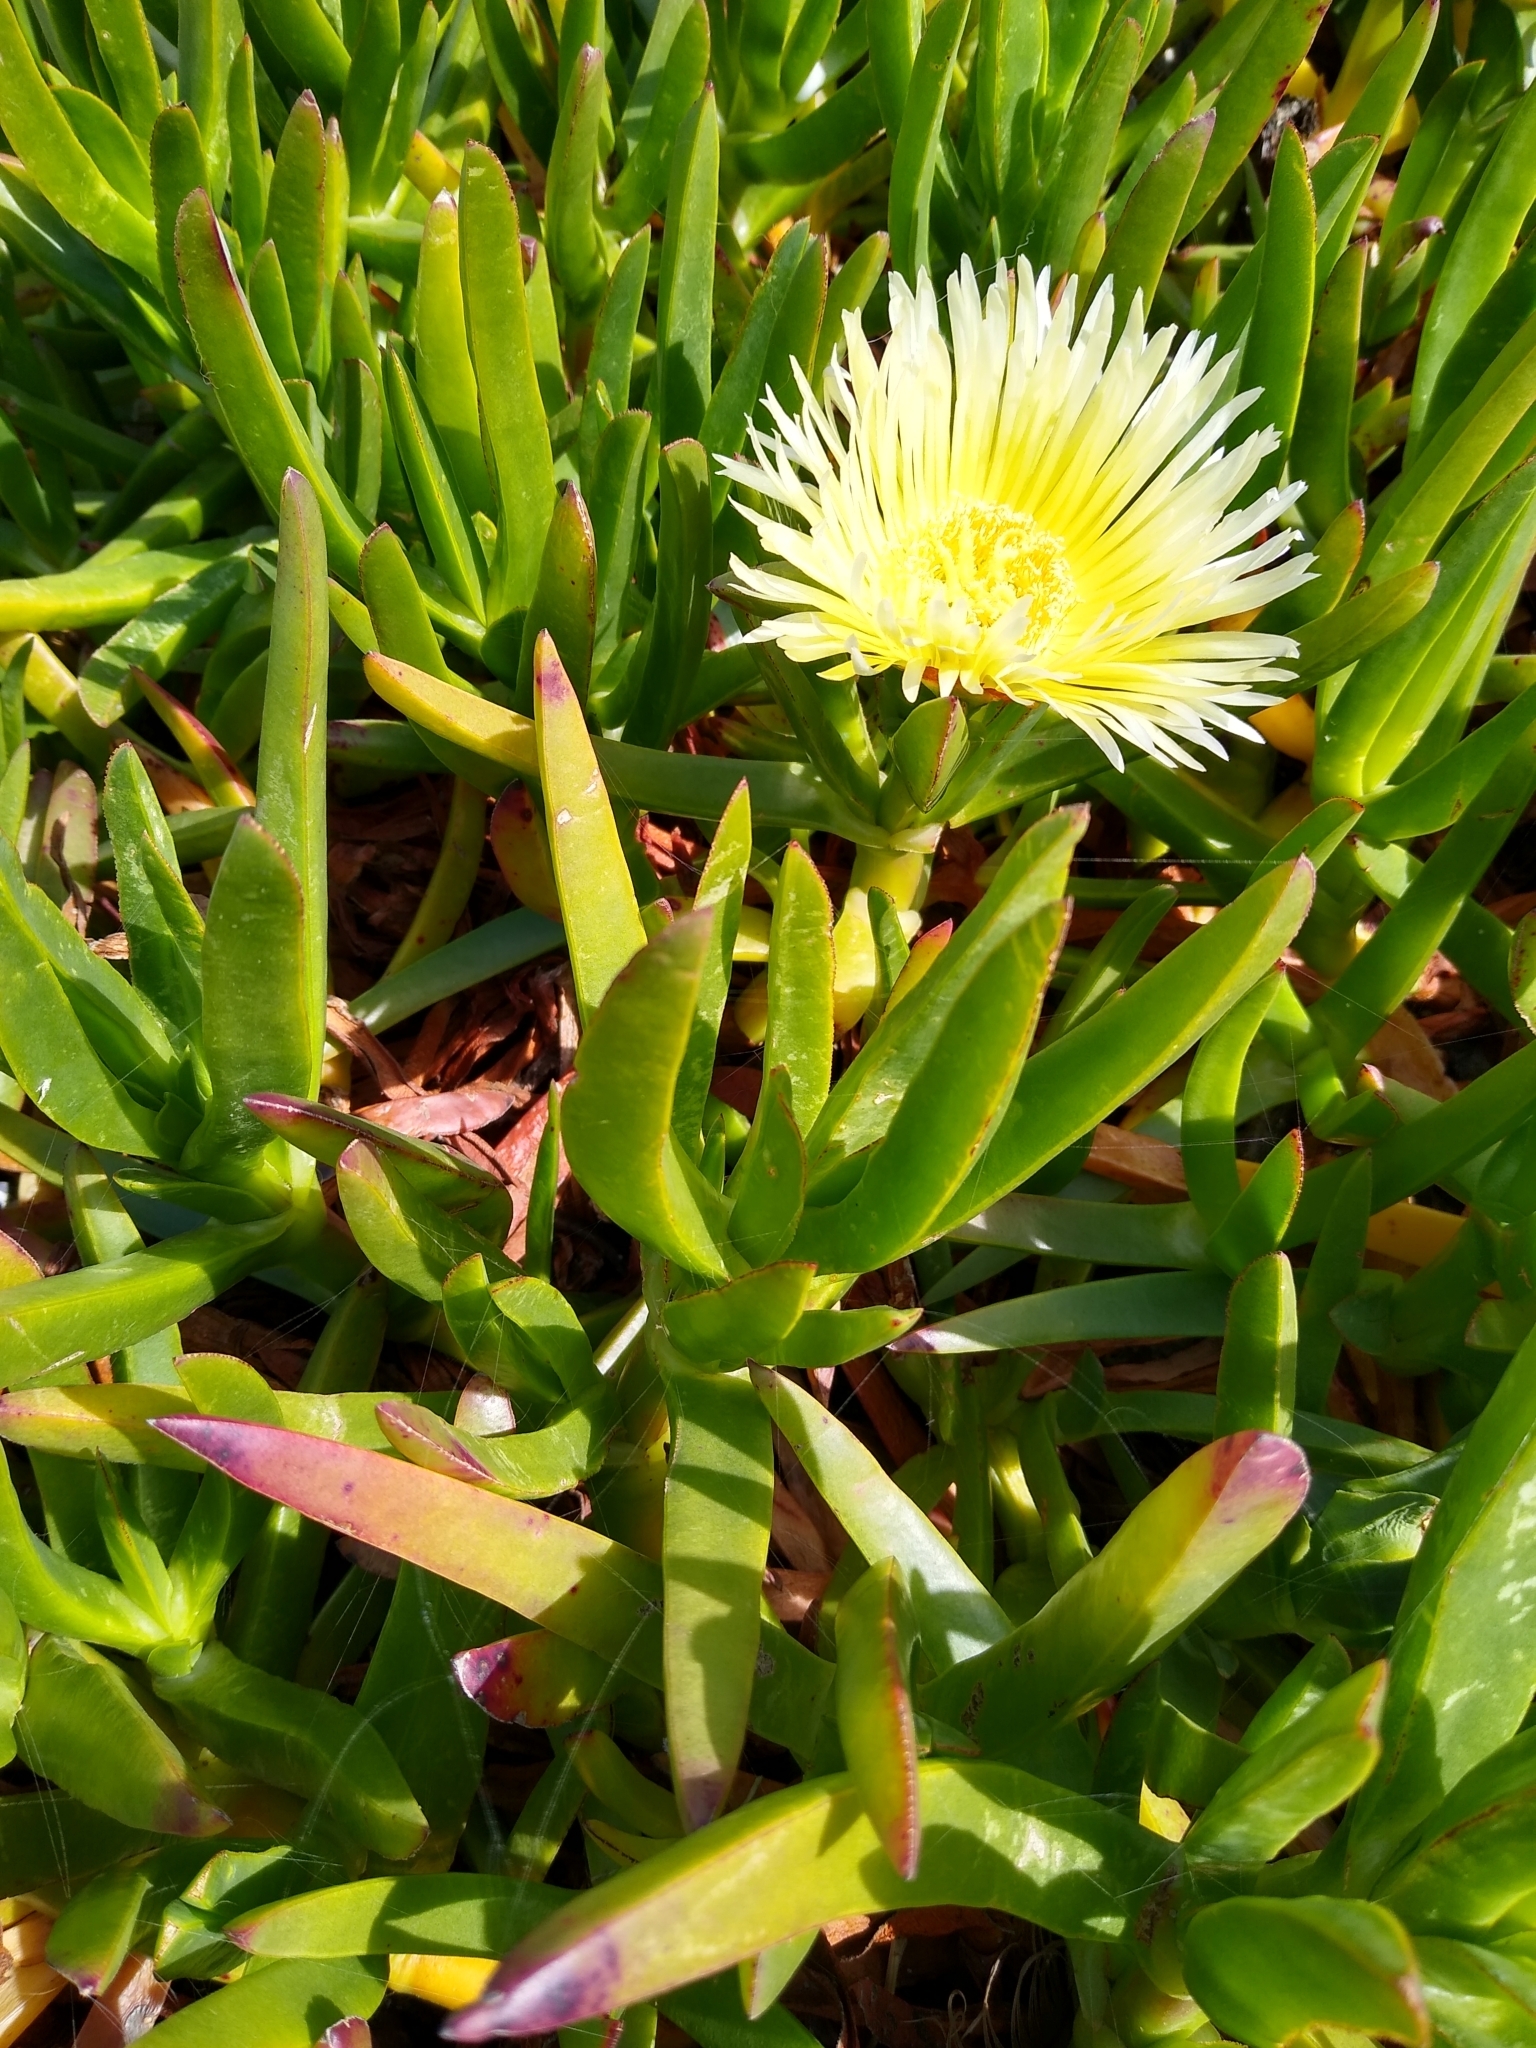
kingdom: Plantae
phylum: Tracheophyta
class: Magnoliopsida
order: Caryophyllales
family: Aizoaceae
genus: Carpobrotus
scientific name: Carpobrotus edulis
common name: Hottentot-fig
